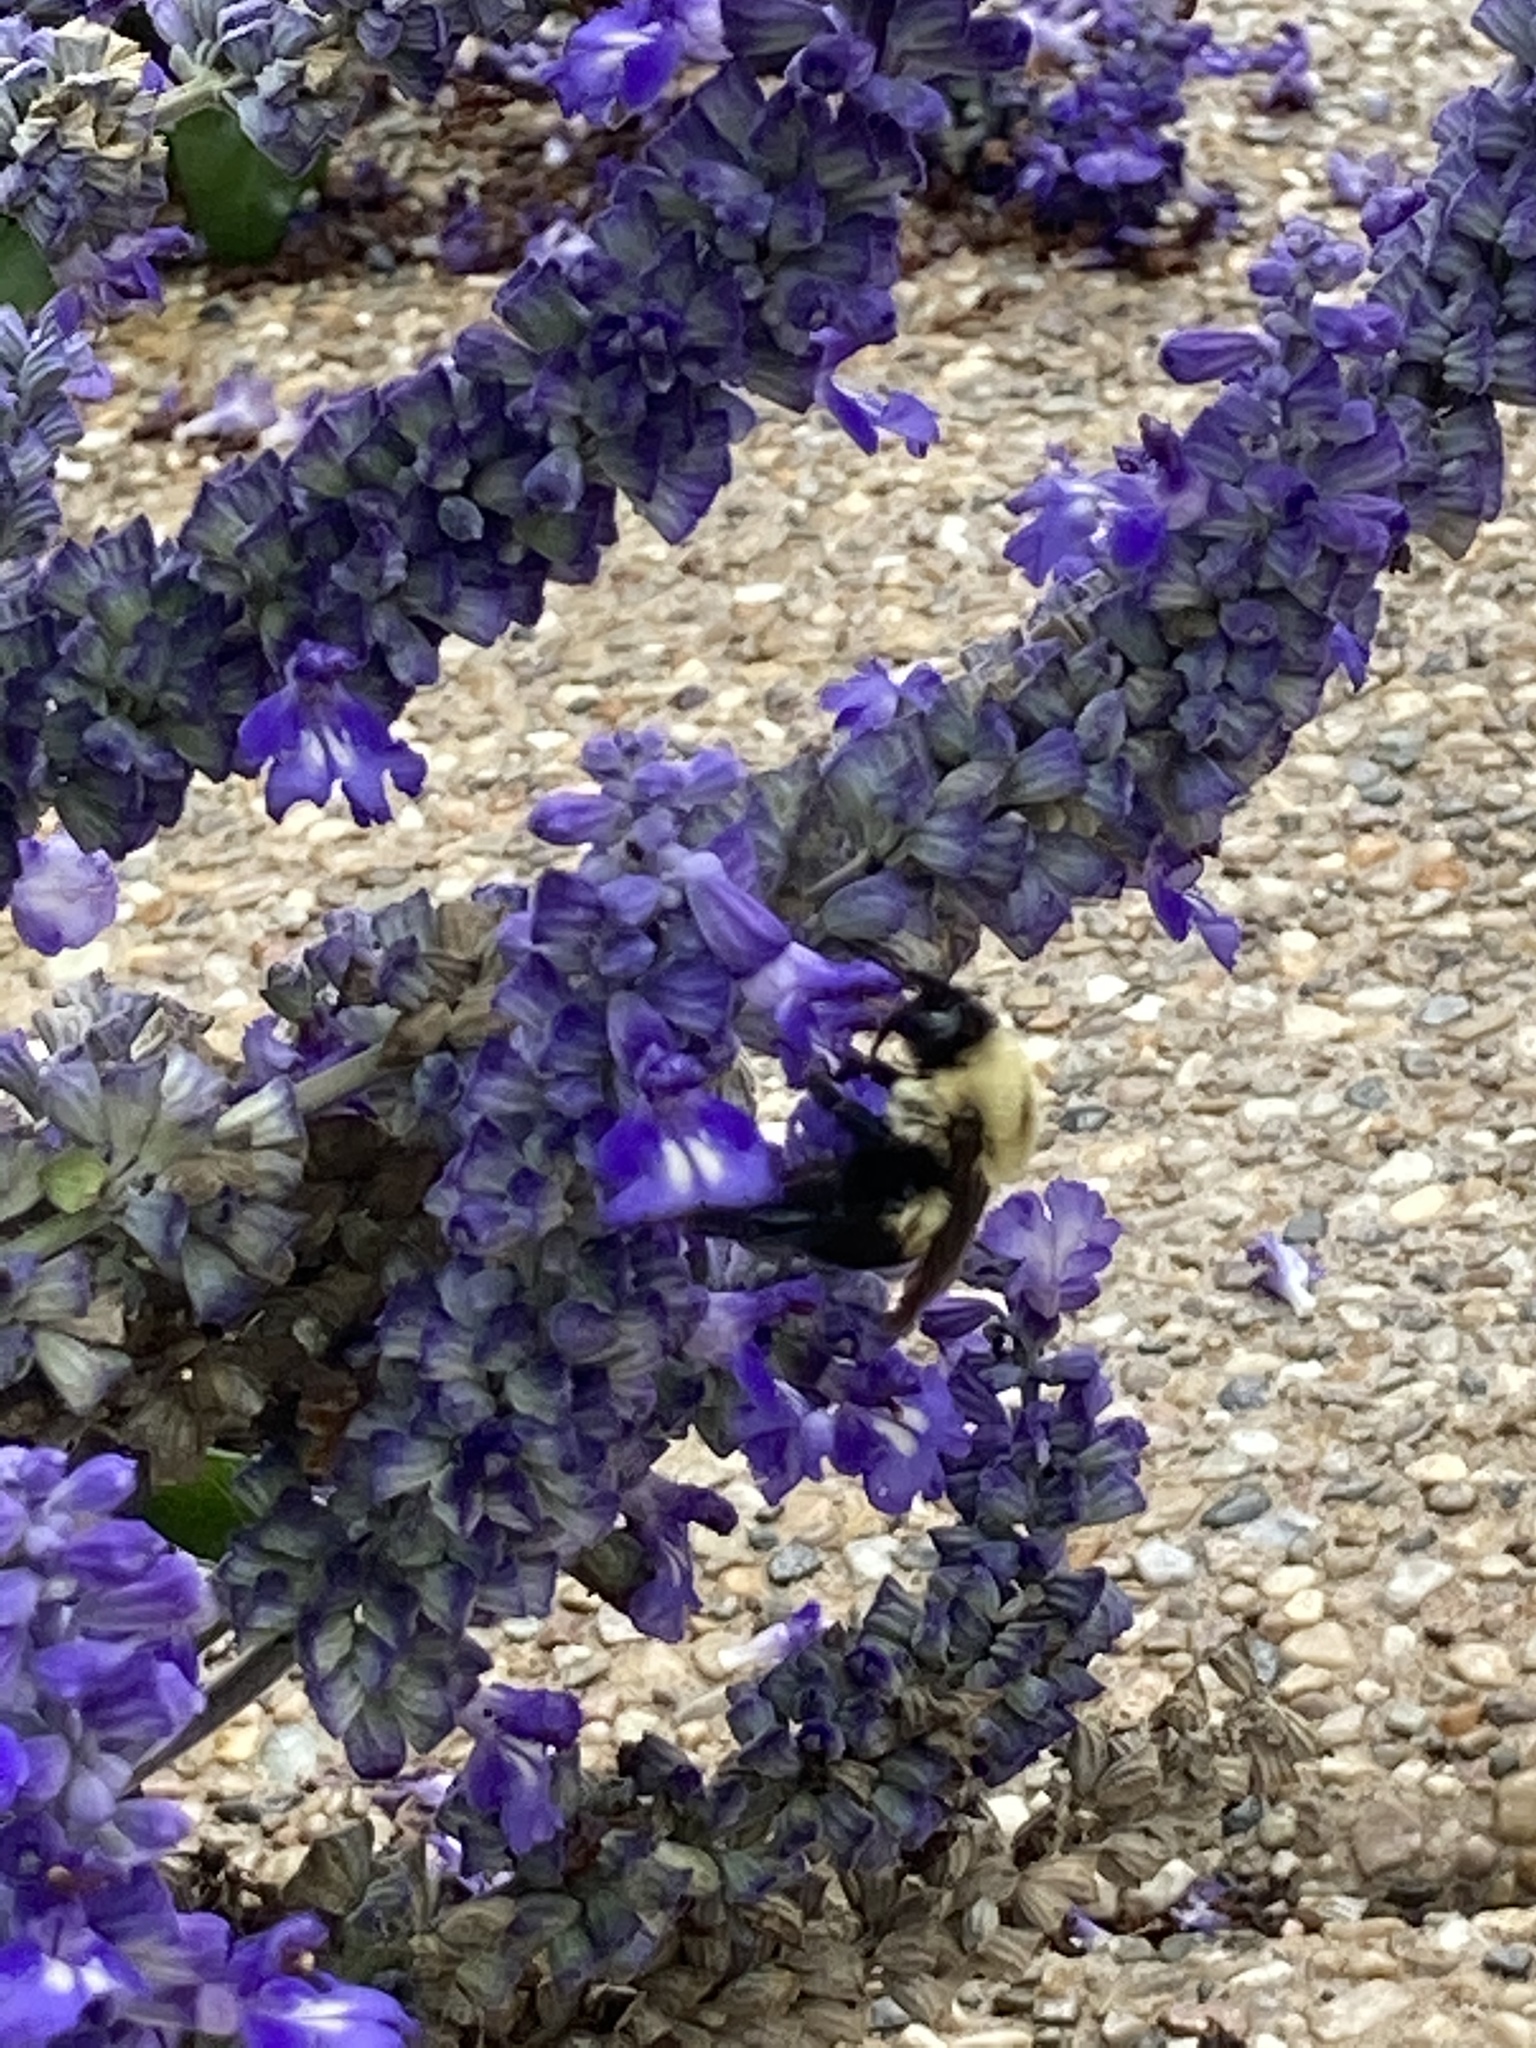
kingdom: Animalia
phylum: Arthropoda
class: Insecta
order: Hymenoptera
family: Apidae
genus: Bombus
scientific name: Bombus griseocollis
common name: Brown-belted bumble bee
